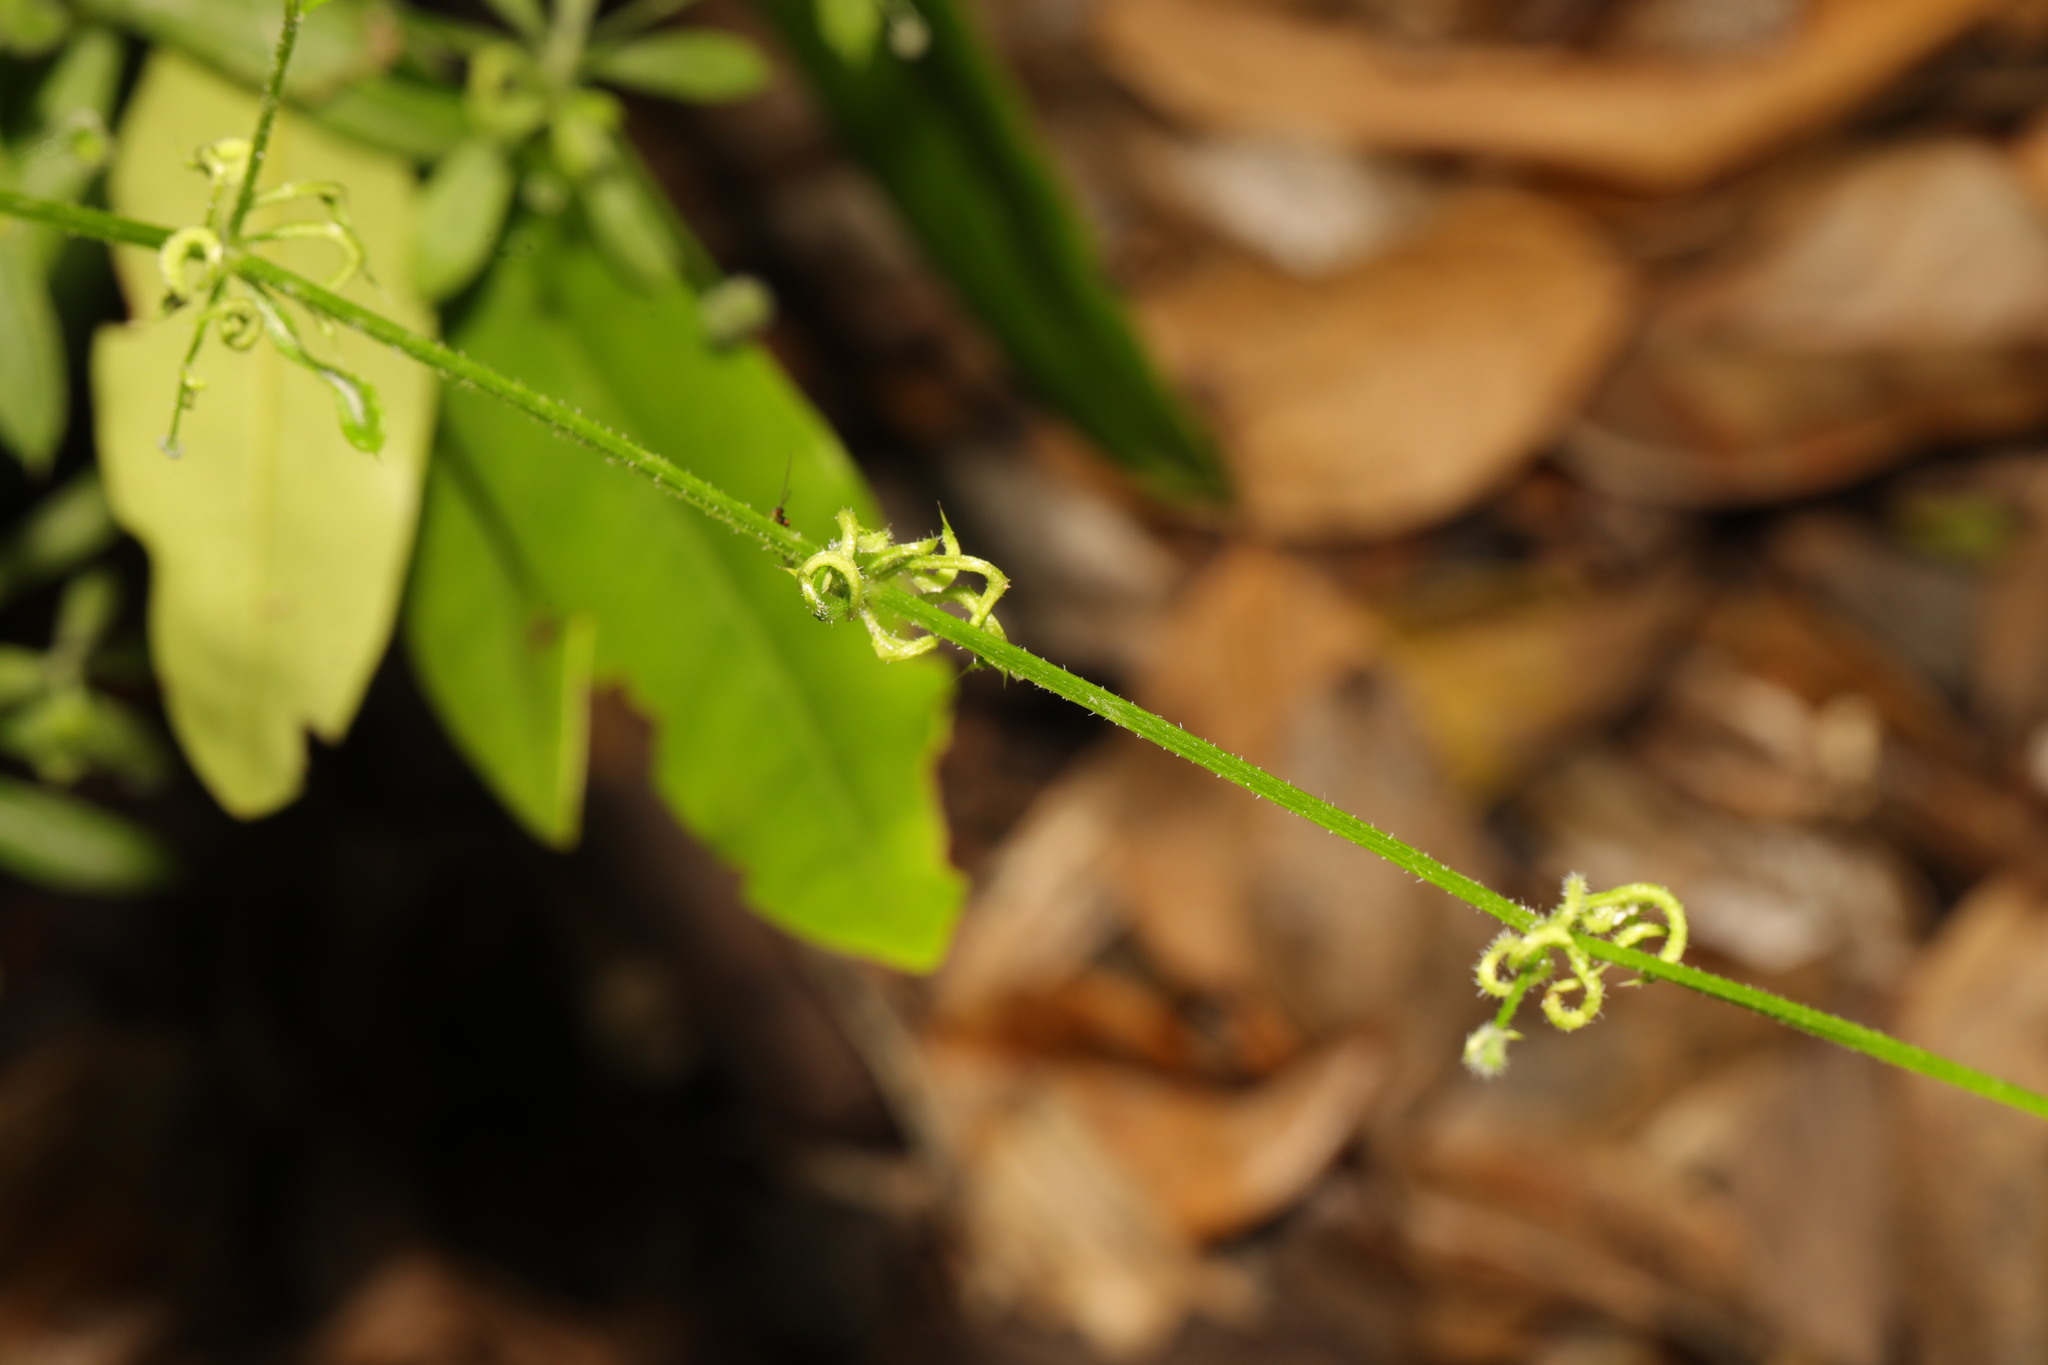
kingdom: Animalia
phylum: Arthropoda
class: Arachnida
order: Trombidiformes
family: Eriophyidae
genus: Cecidophyes
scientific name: Cecidophyes rouhollahi
